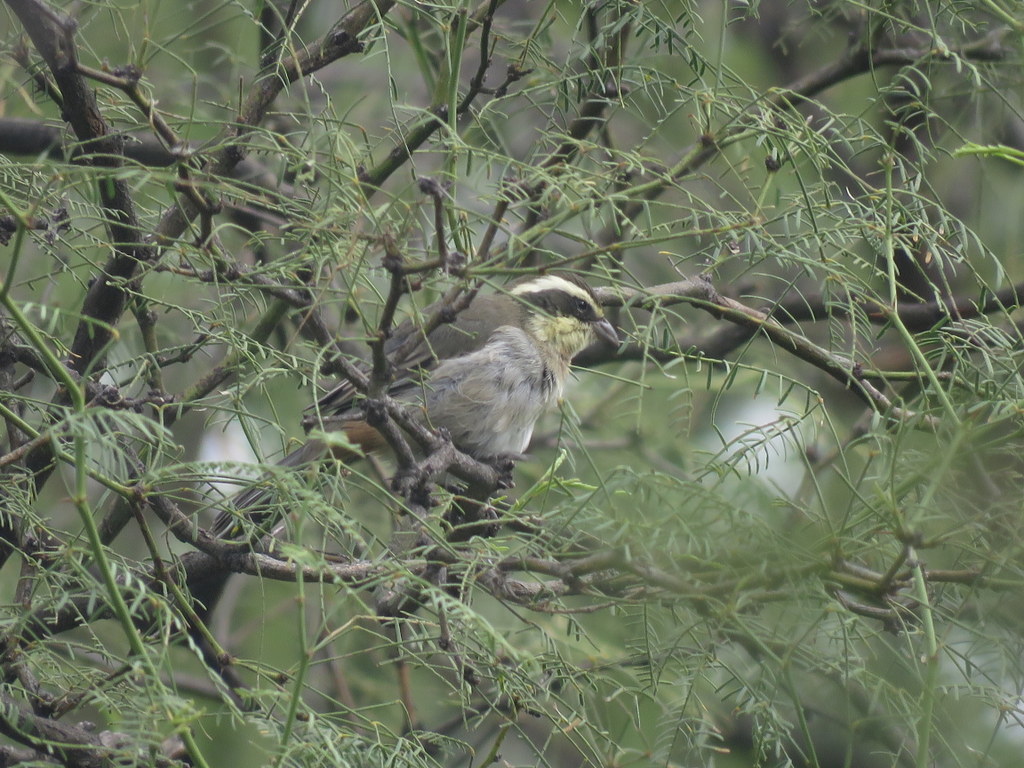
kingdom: Animalia
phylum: Chordata
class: Aves
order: Passeriformes
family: Thraupidae
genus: Microspingus
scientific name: Microspingus torquatus
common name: Ringed warbling-finch
